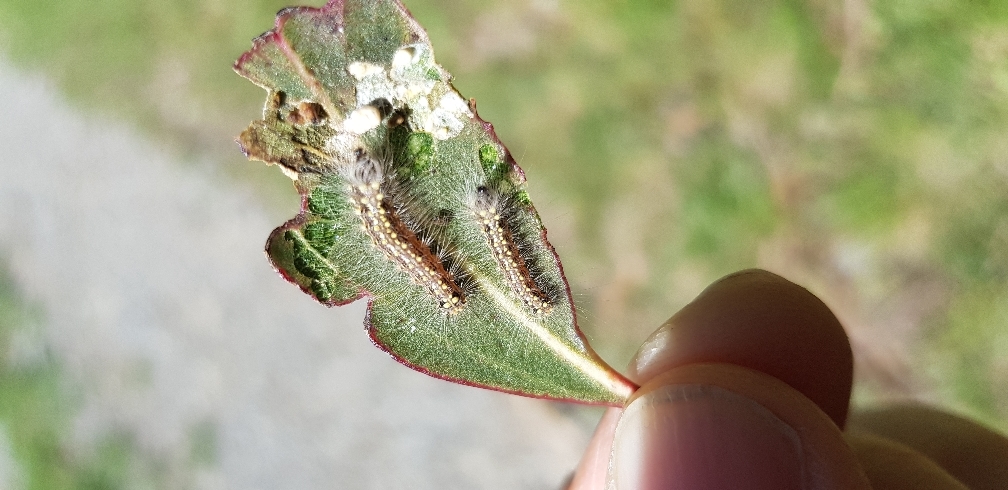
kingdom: Animalia
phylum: Arthropoda
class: Insecta
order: Lepidoptera
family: Nolidae
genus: Uraba
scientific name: Uraba lugens
